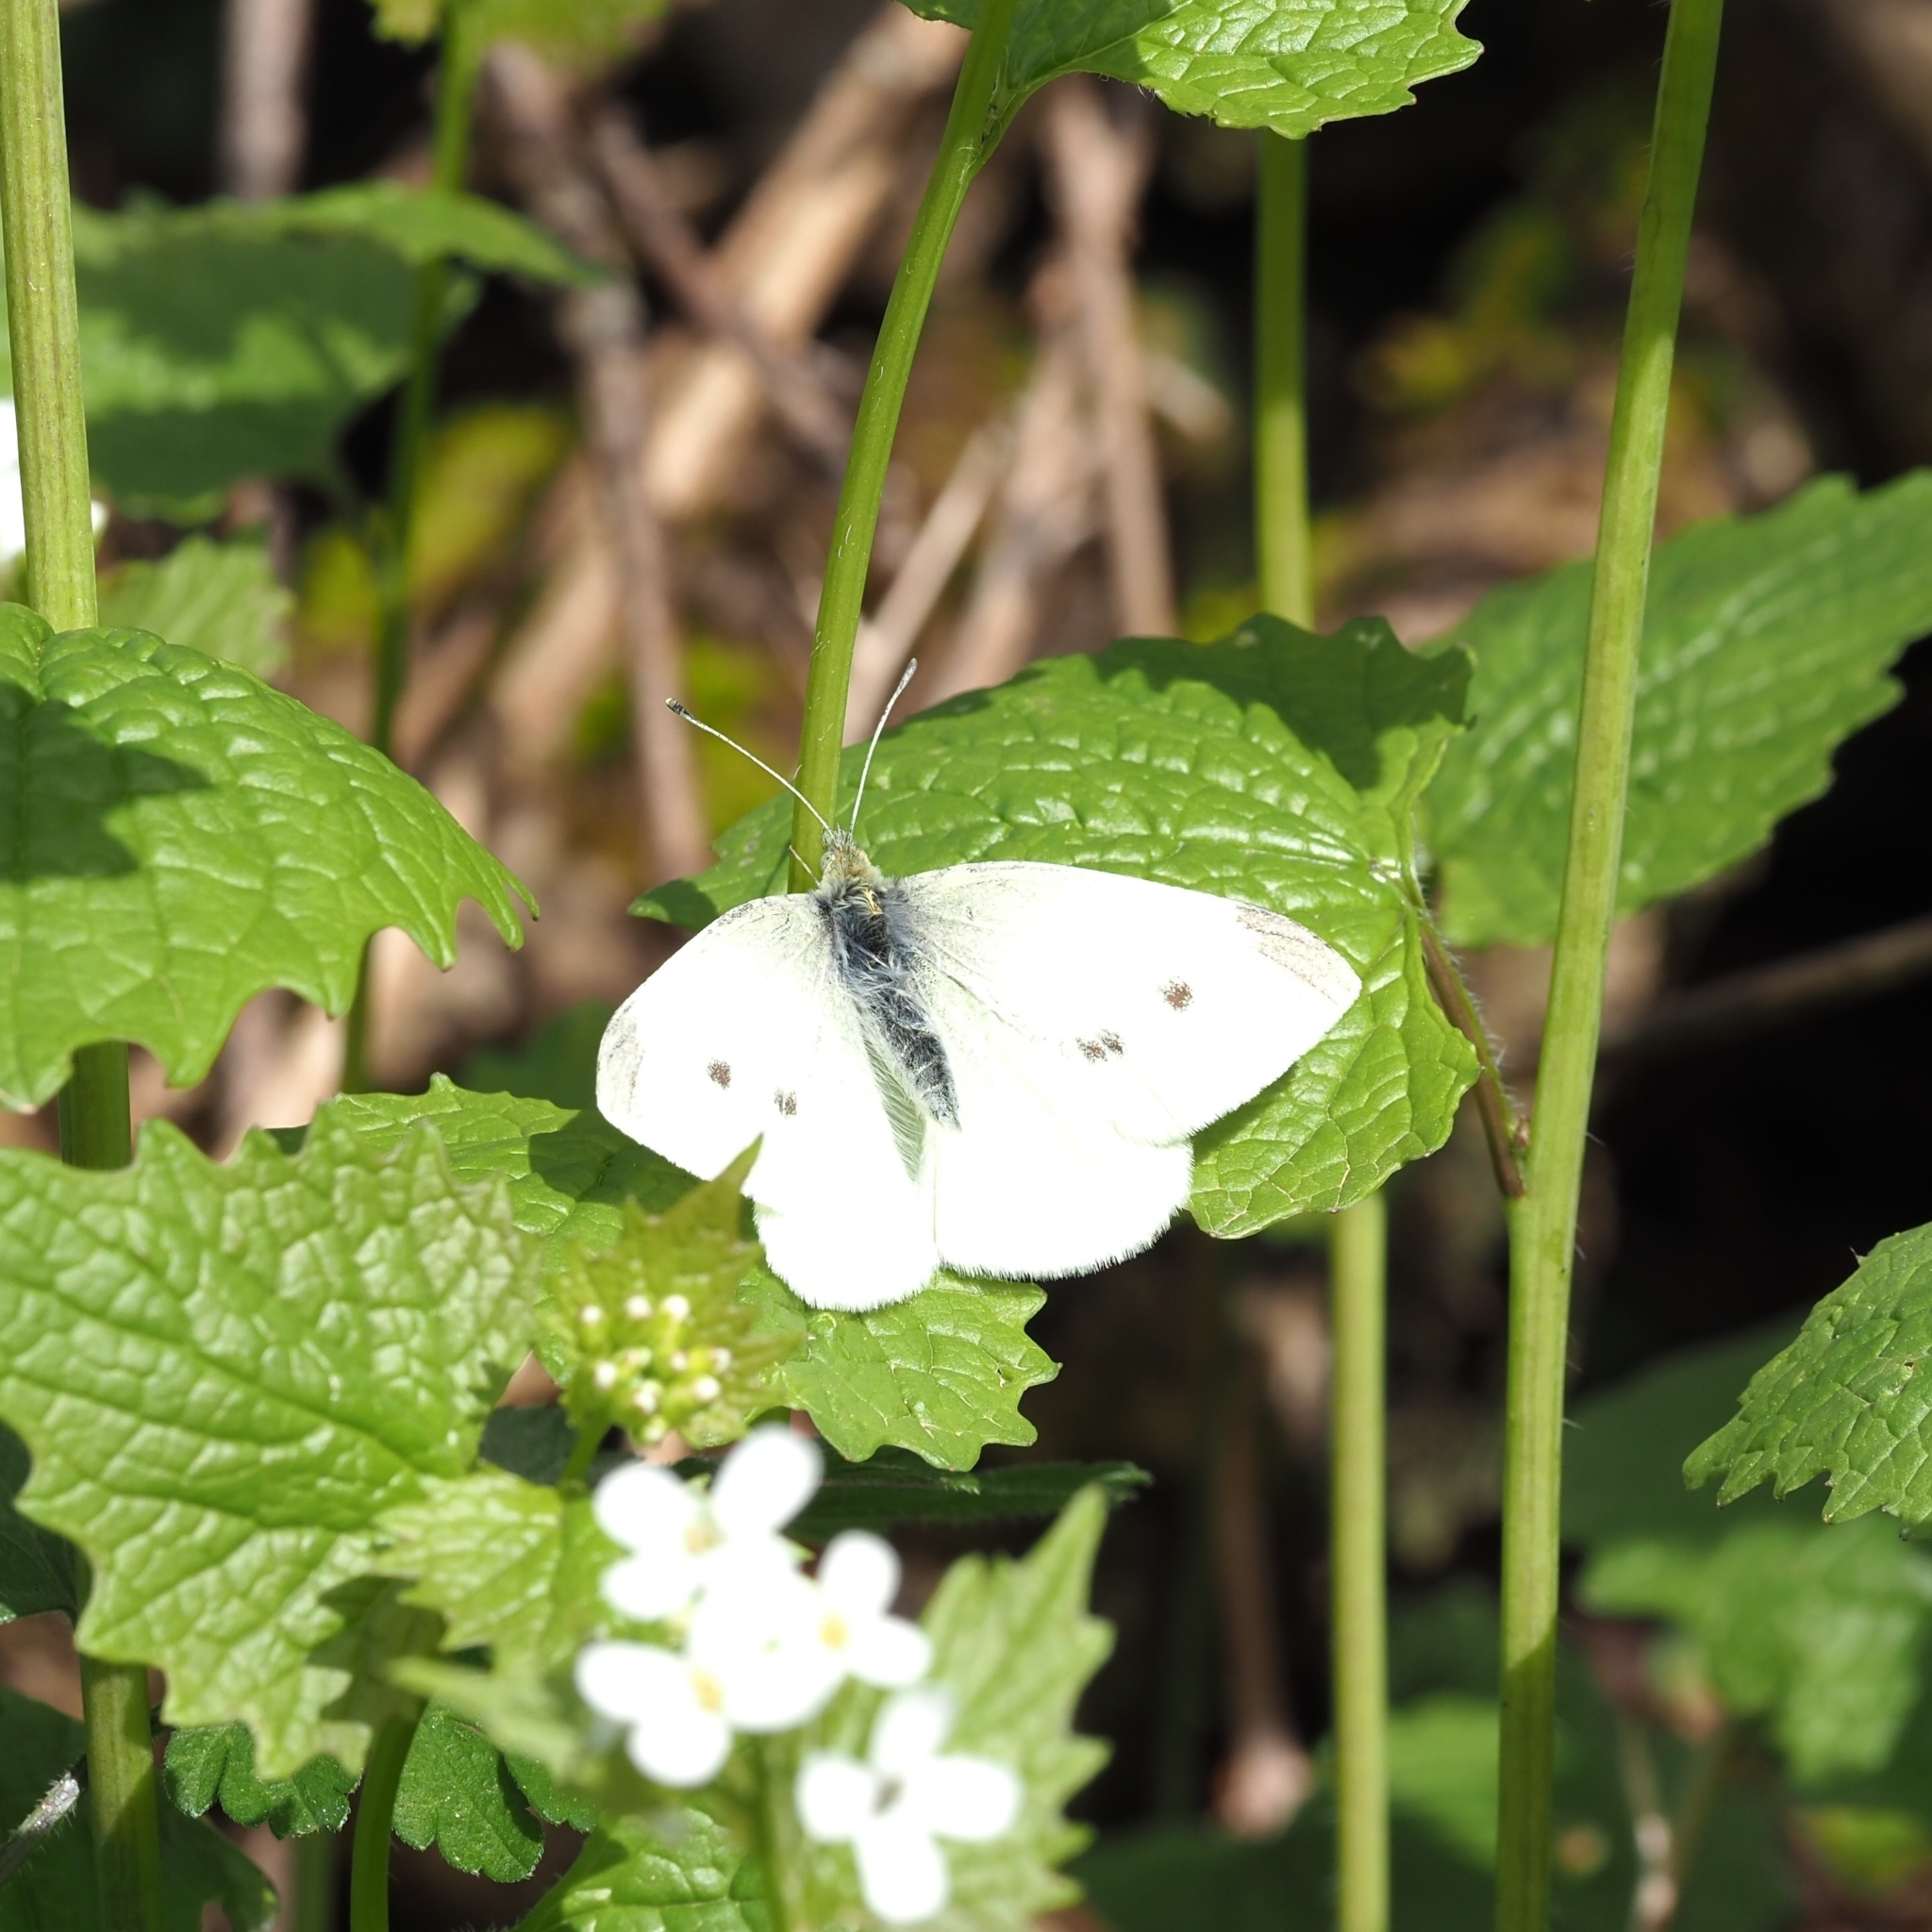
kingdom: Animalia
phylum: Arthropoda
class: Insecta
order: Lepidoptera
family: Pieridae
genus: Pieris
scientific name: Pieris rapae
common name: Small white
